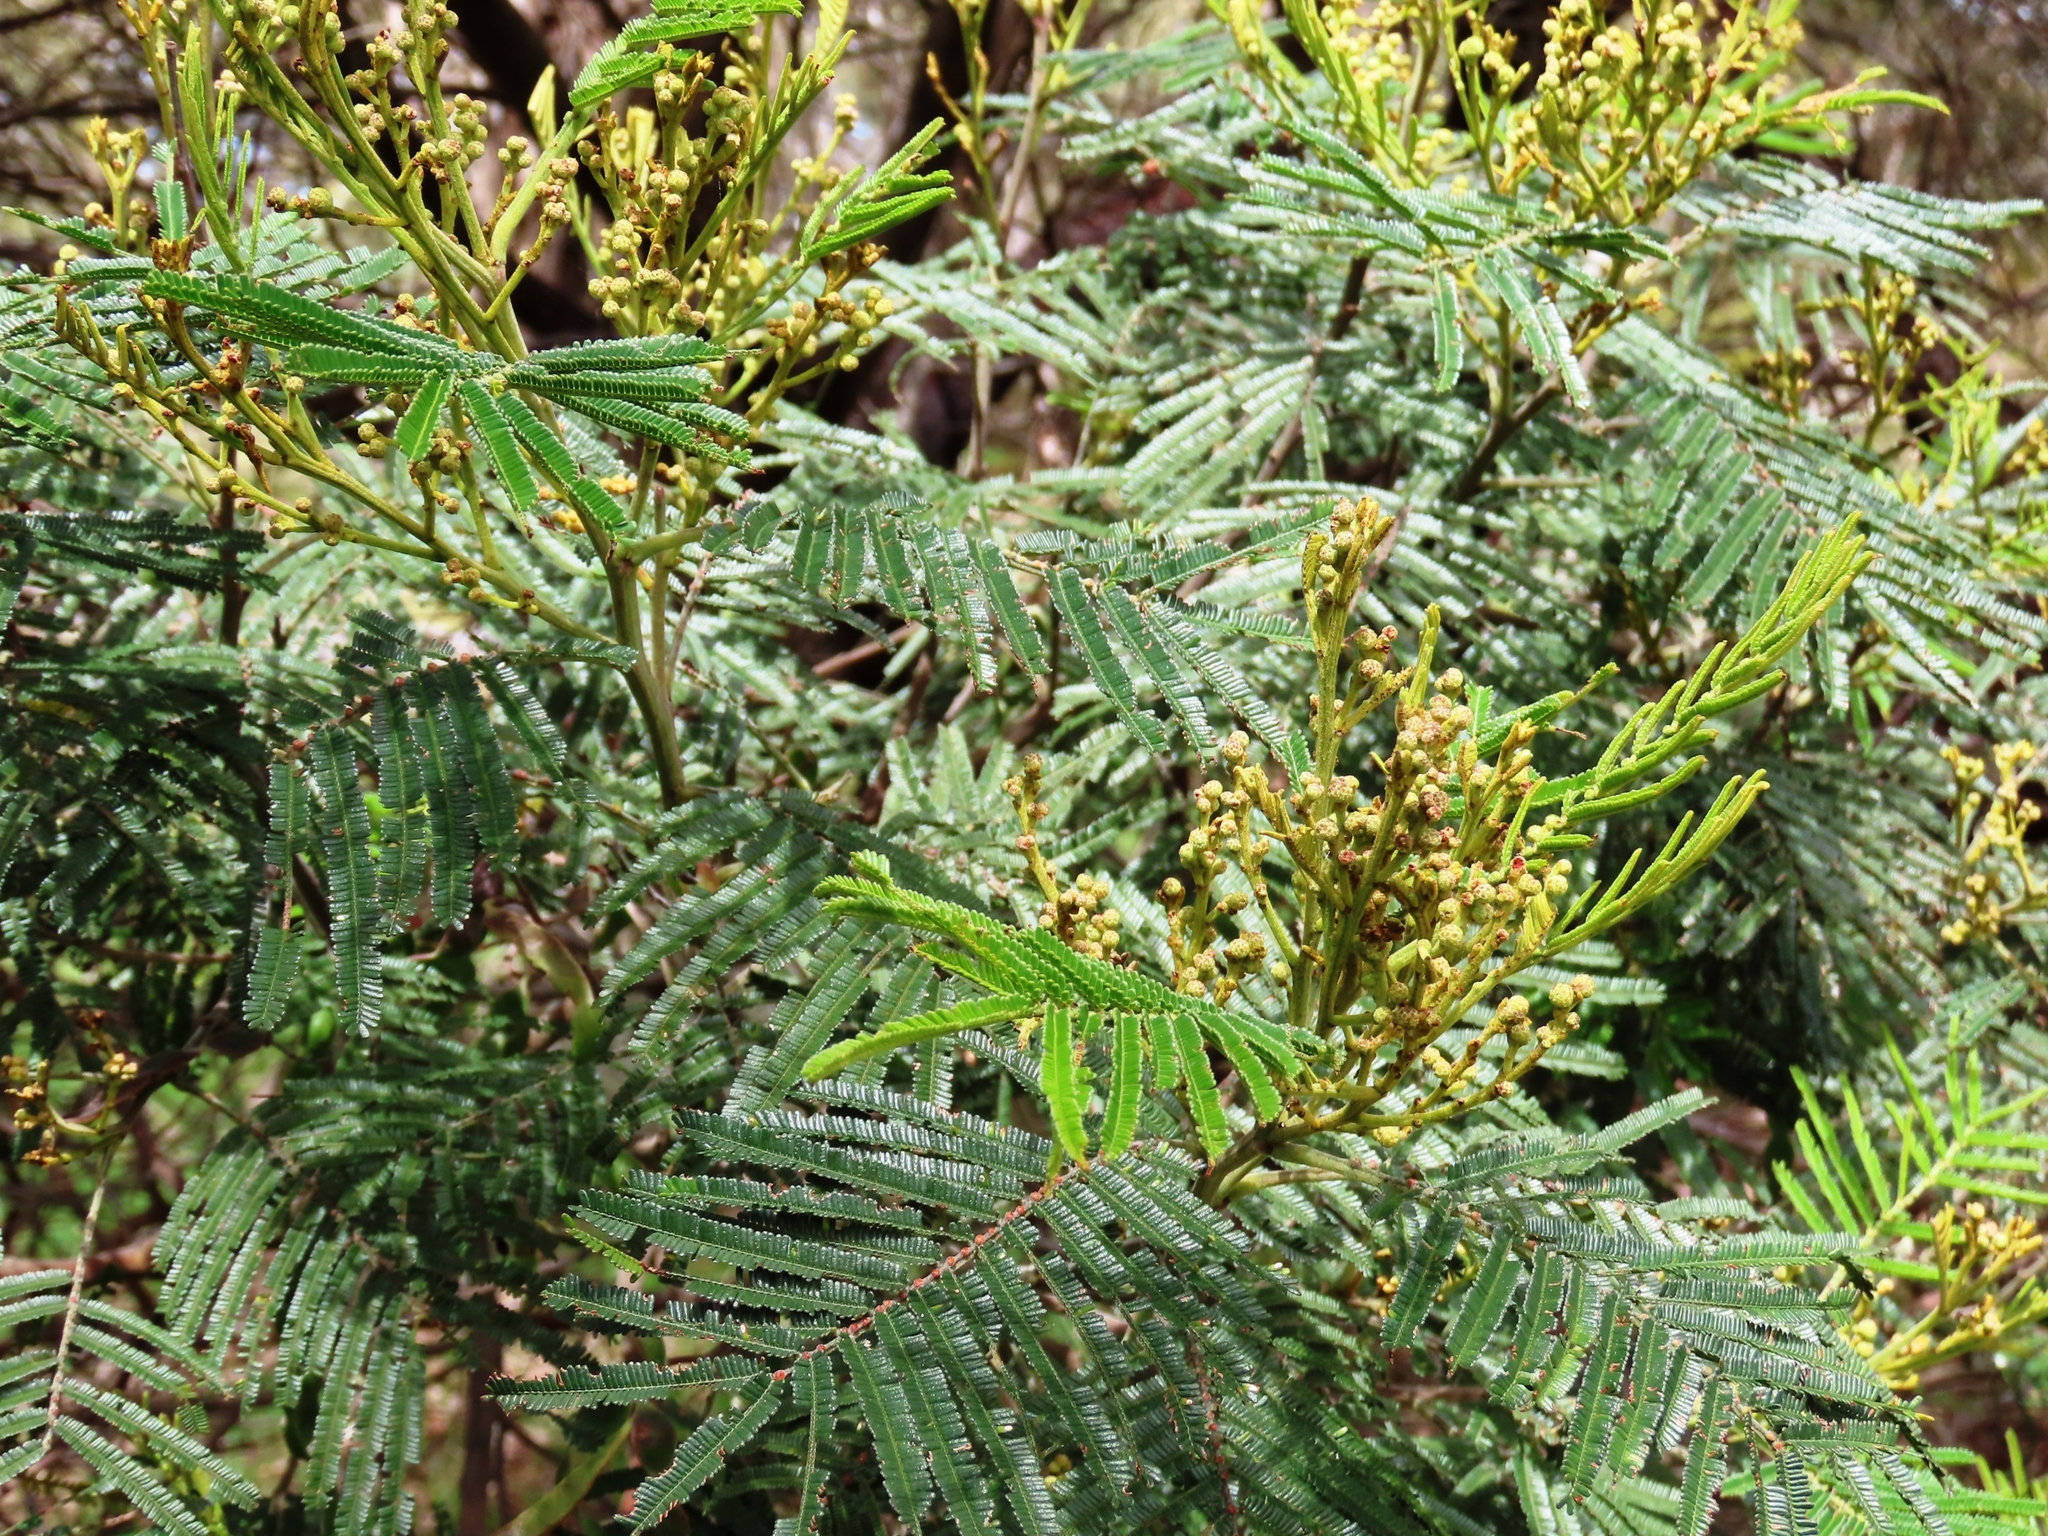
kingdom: Plantae
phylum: Tracheophyta
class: Magnoliopsida
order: Fabales
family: Fabaceae
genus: Acacia
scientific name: Acacia mearnsii
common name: Black wattle
